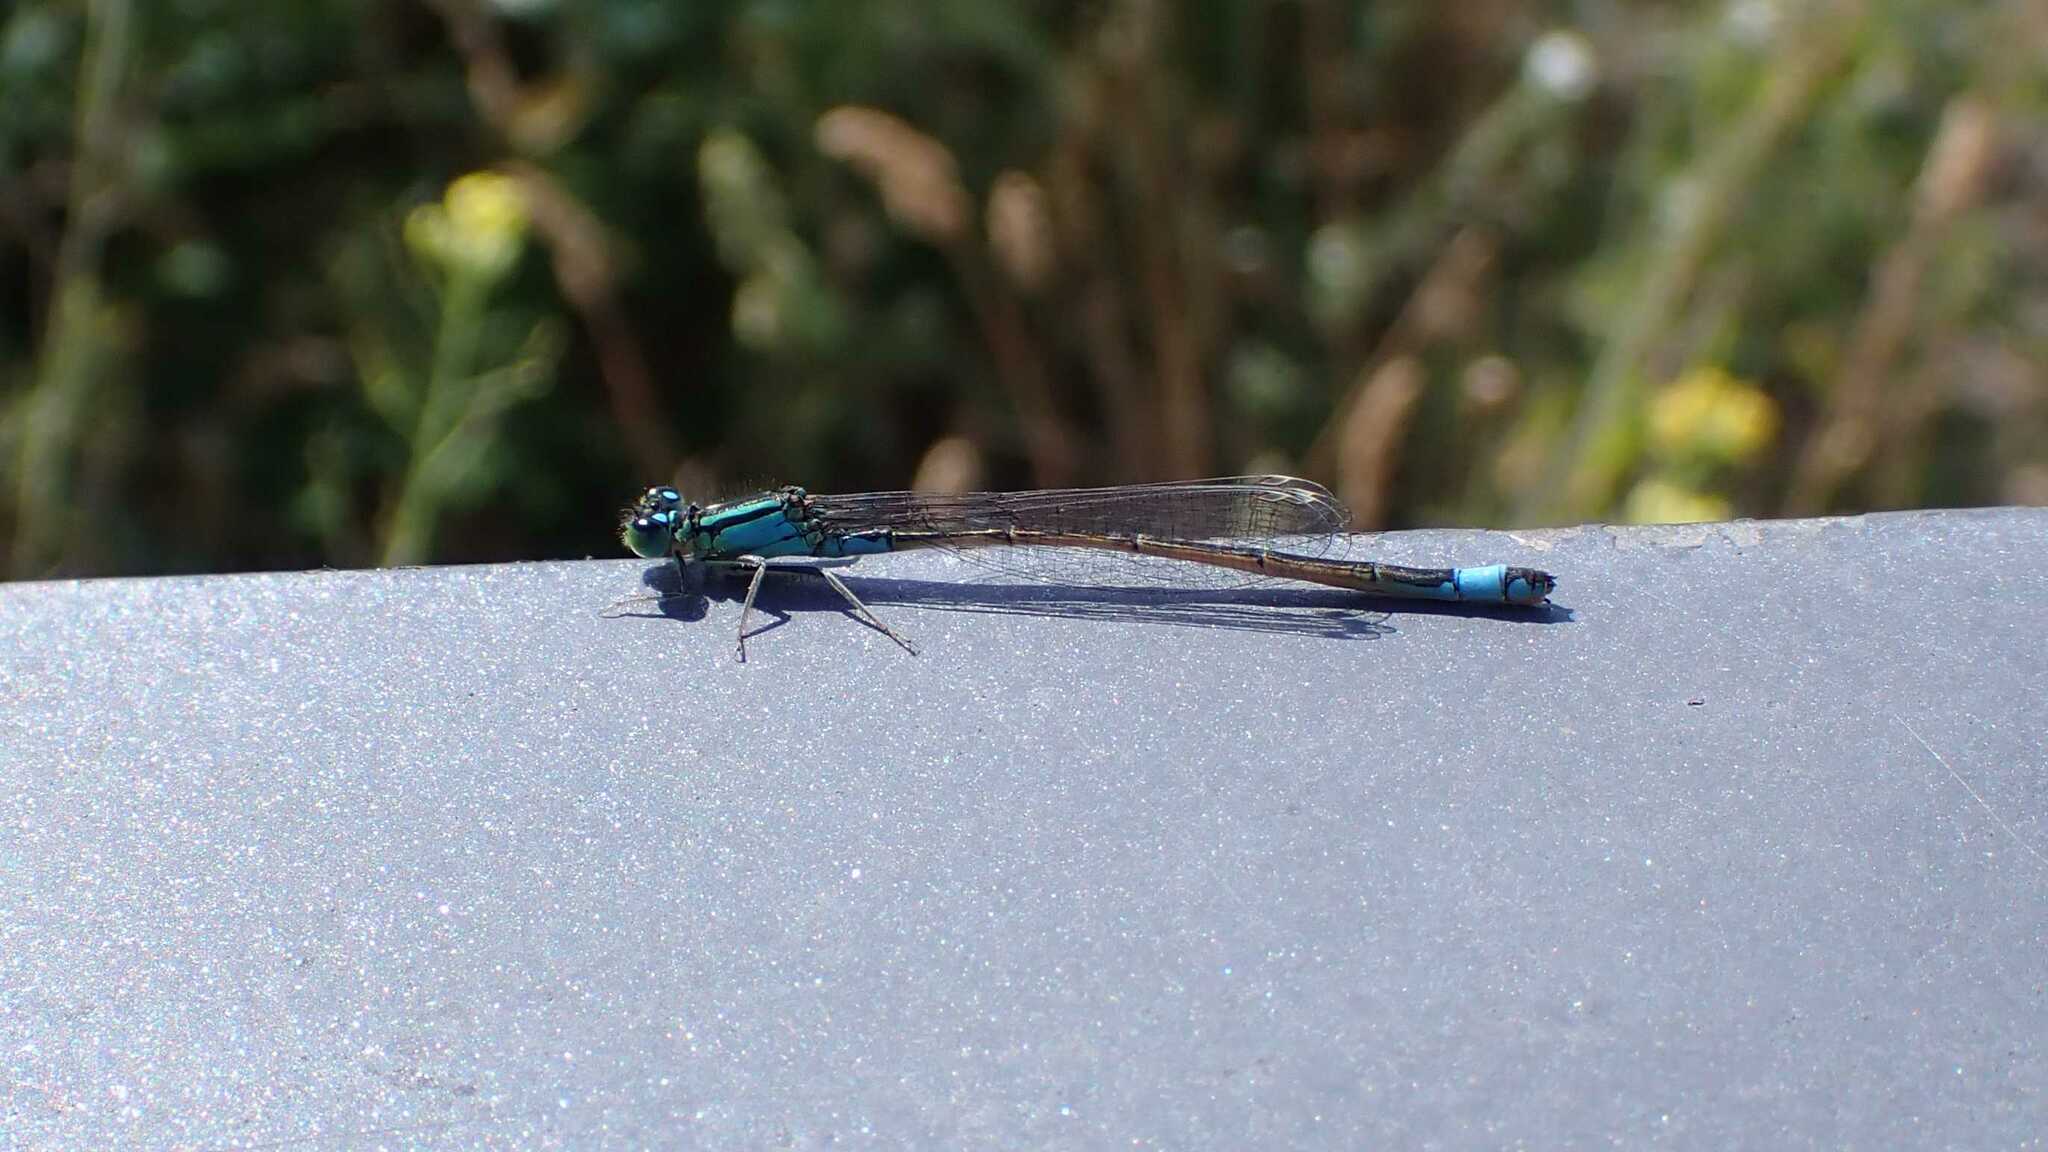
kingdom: Animalia
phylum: Arthropoda
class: Insecta
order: Odonata
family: Coenagrionidae
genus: Ischnura
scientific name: Ischnura elegans
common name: Blue-tailed damselfly
